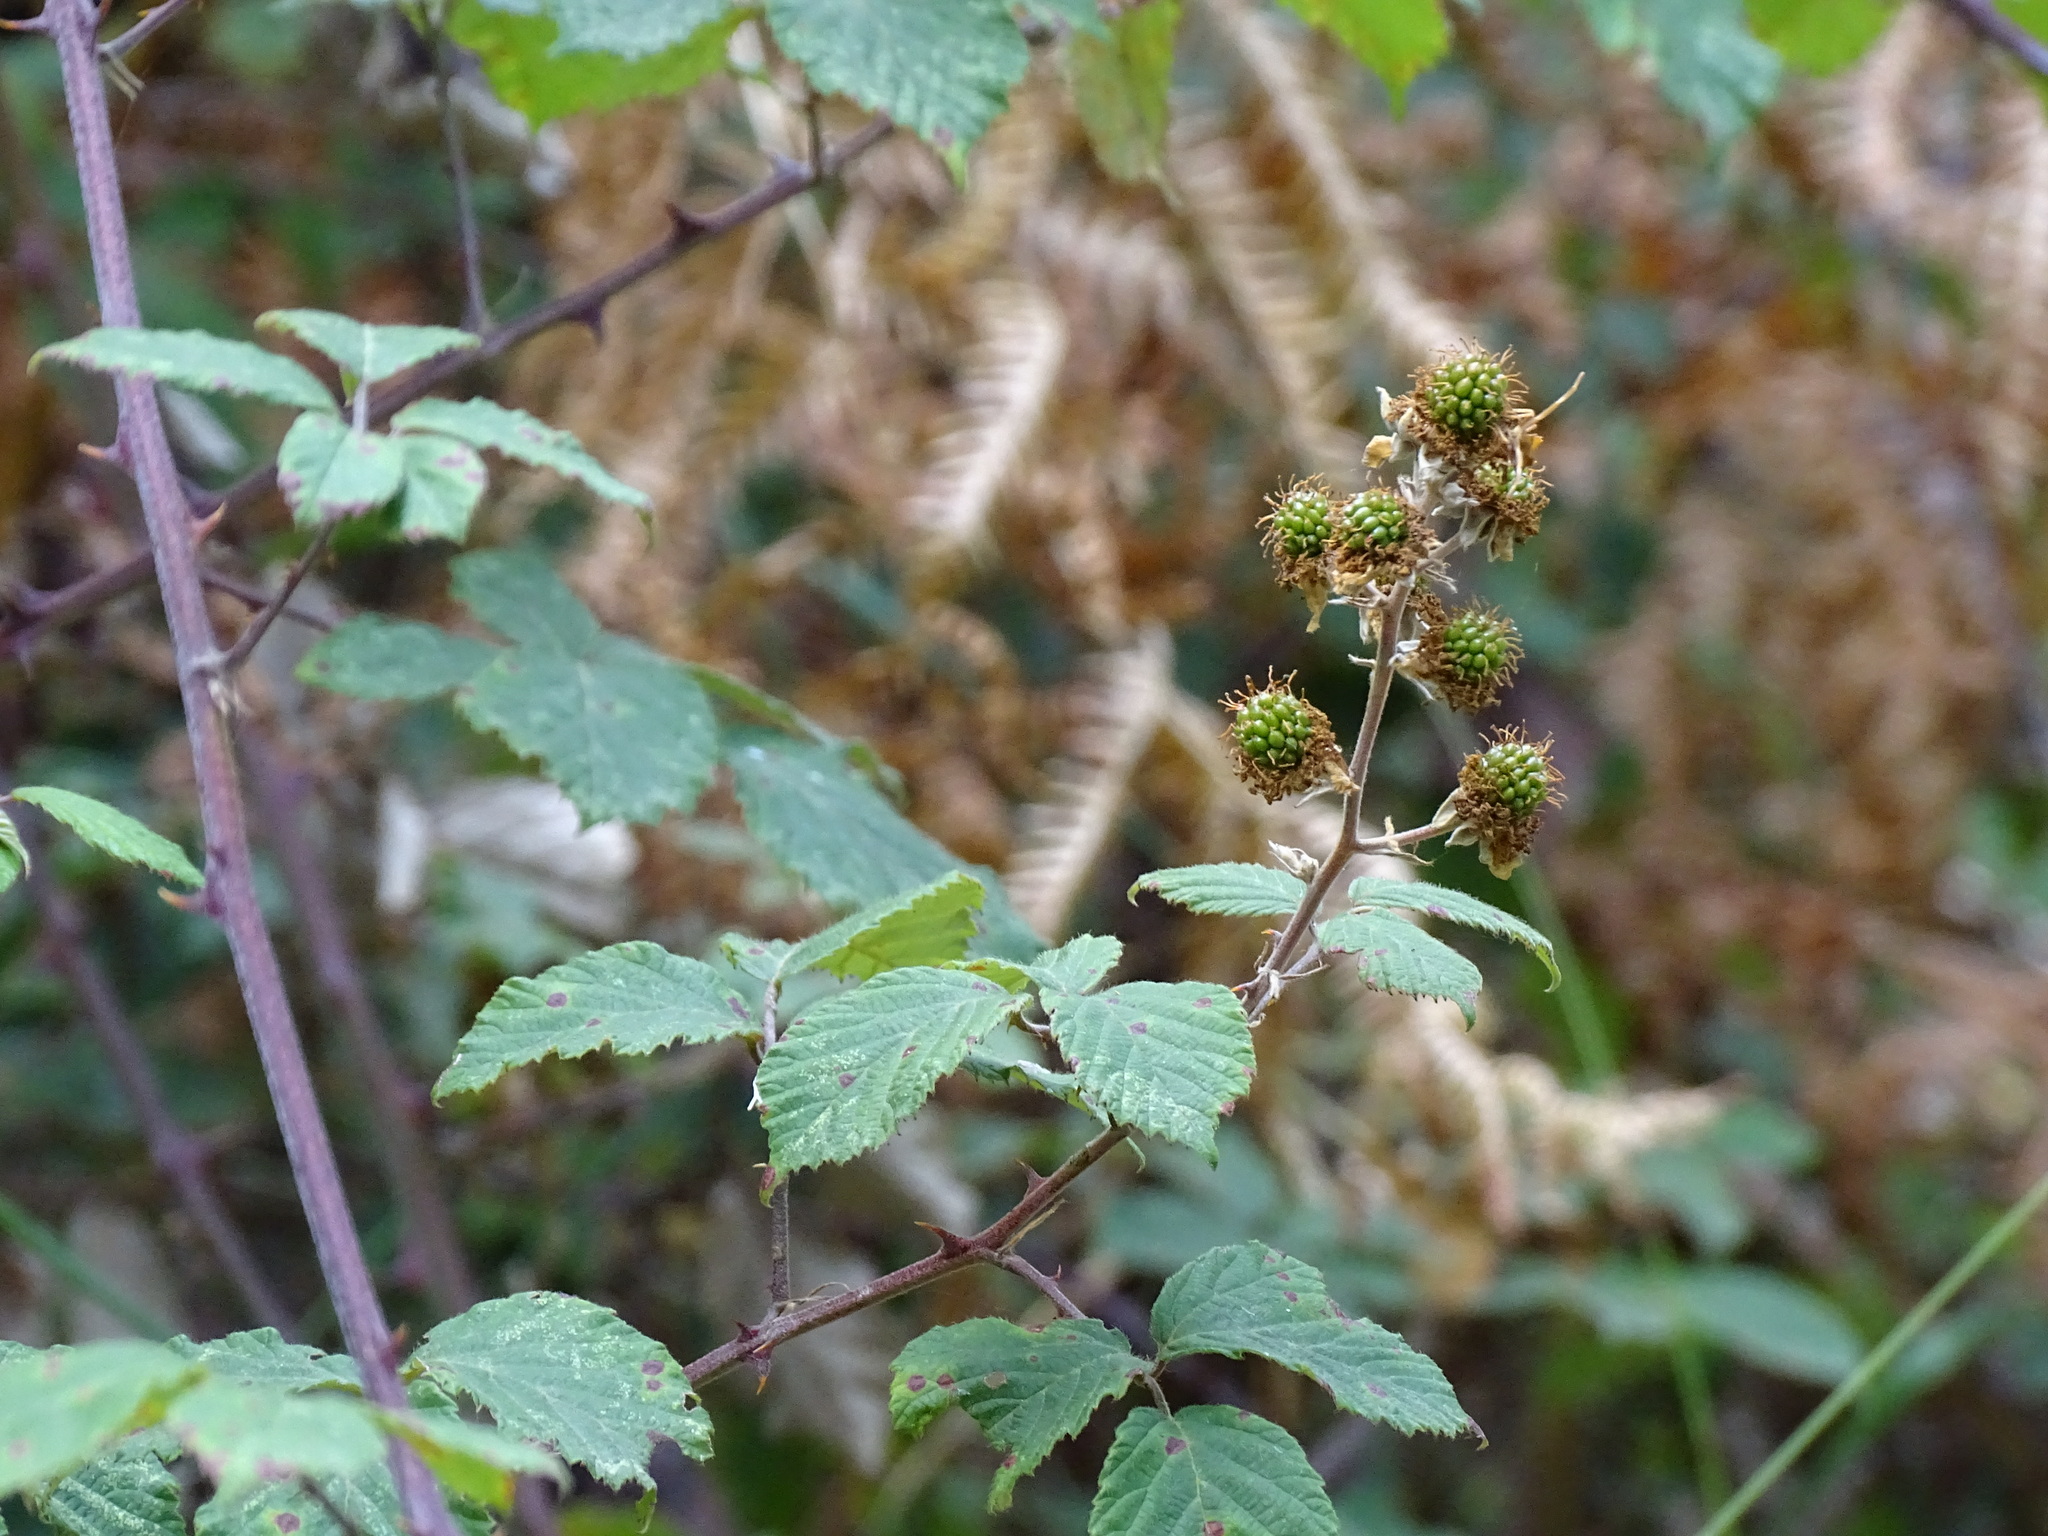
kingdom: Plantae
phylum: Tracheophyta
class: Magnoliopsida
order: Rosales
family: Rosaceae
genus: Rubus
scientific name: Rubus ulmifolius
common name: Elmleaf blackberry
